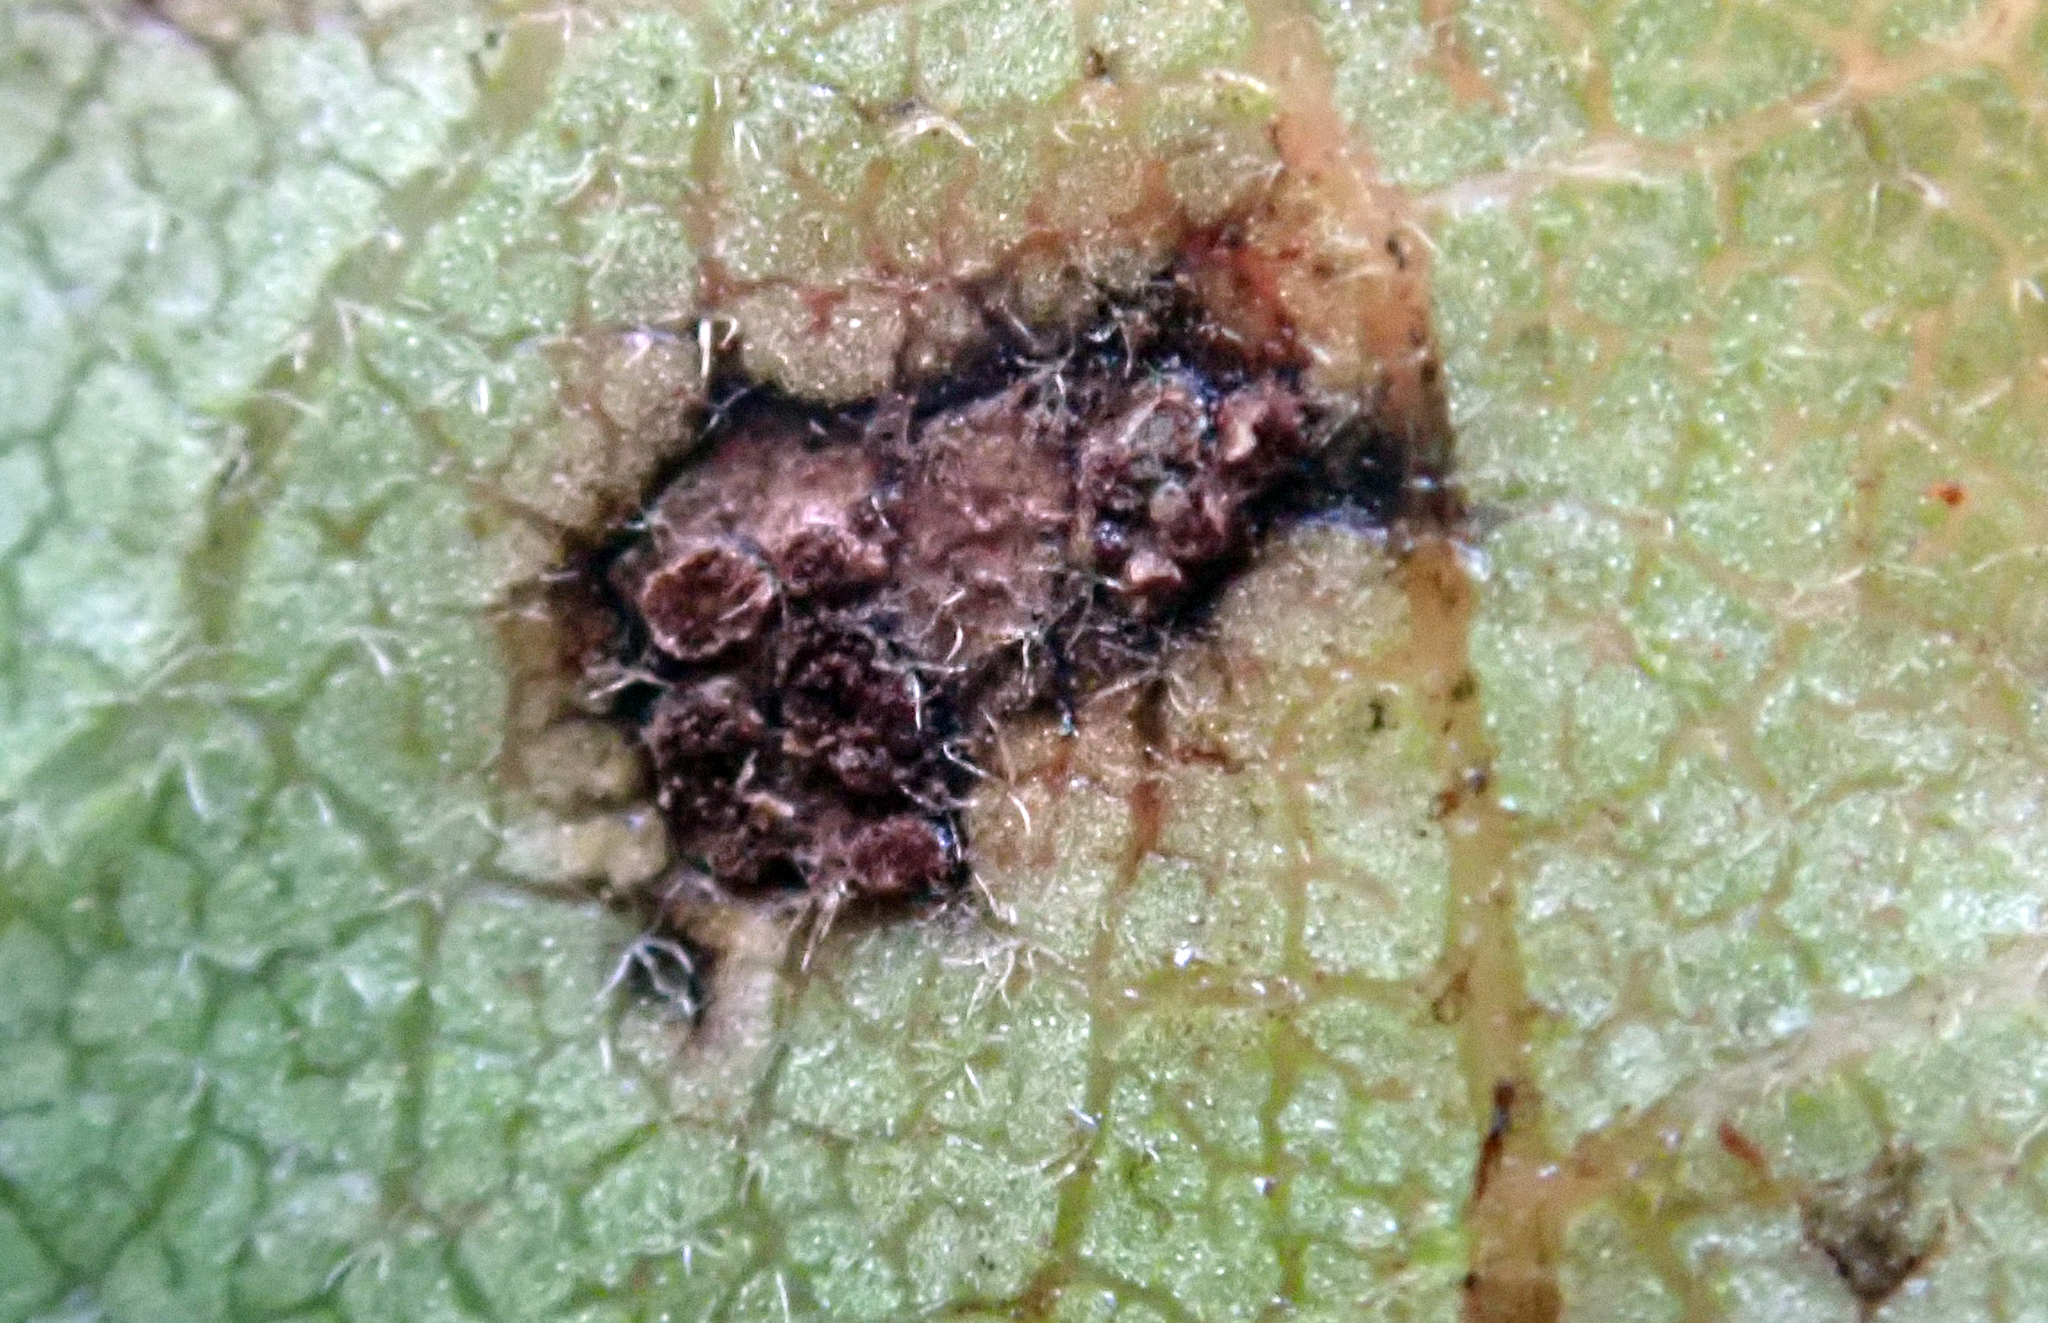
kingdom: Fungi
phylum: Basidiomycota
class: Pucciniomycetes
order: Pucciniales
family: Pucciniaceae
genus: Puccinia
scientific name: Puccinia plagianthi
